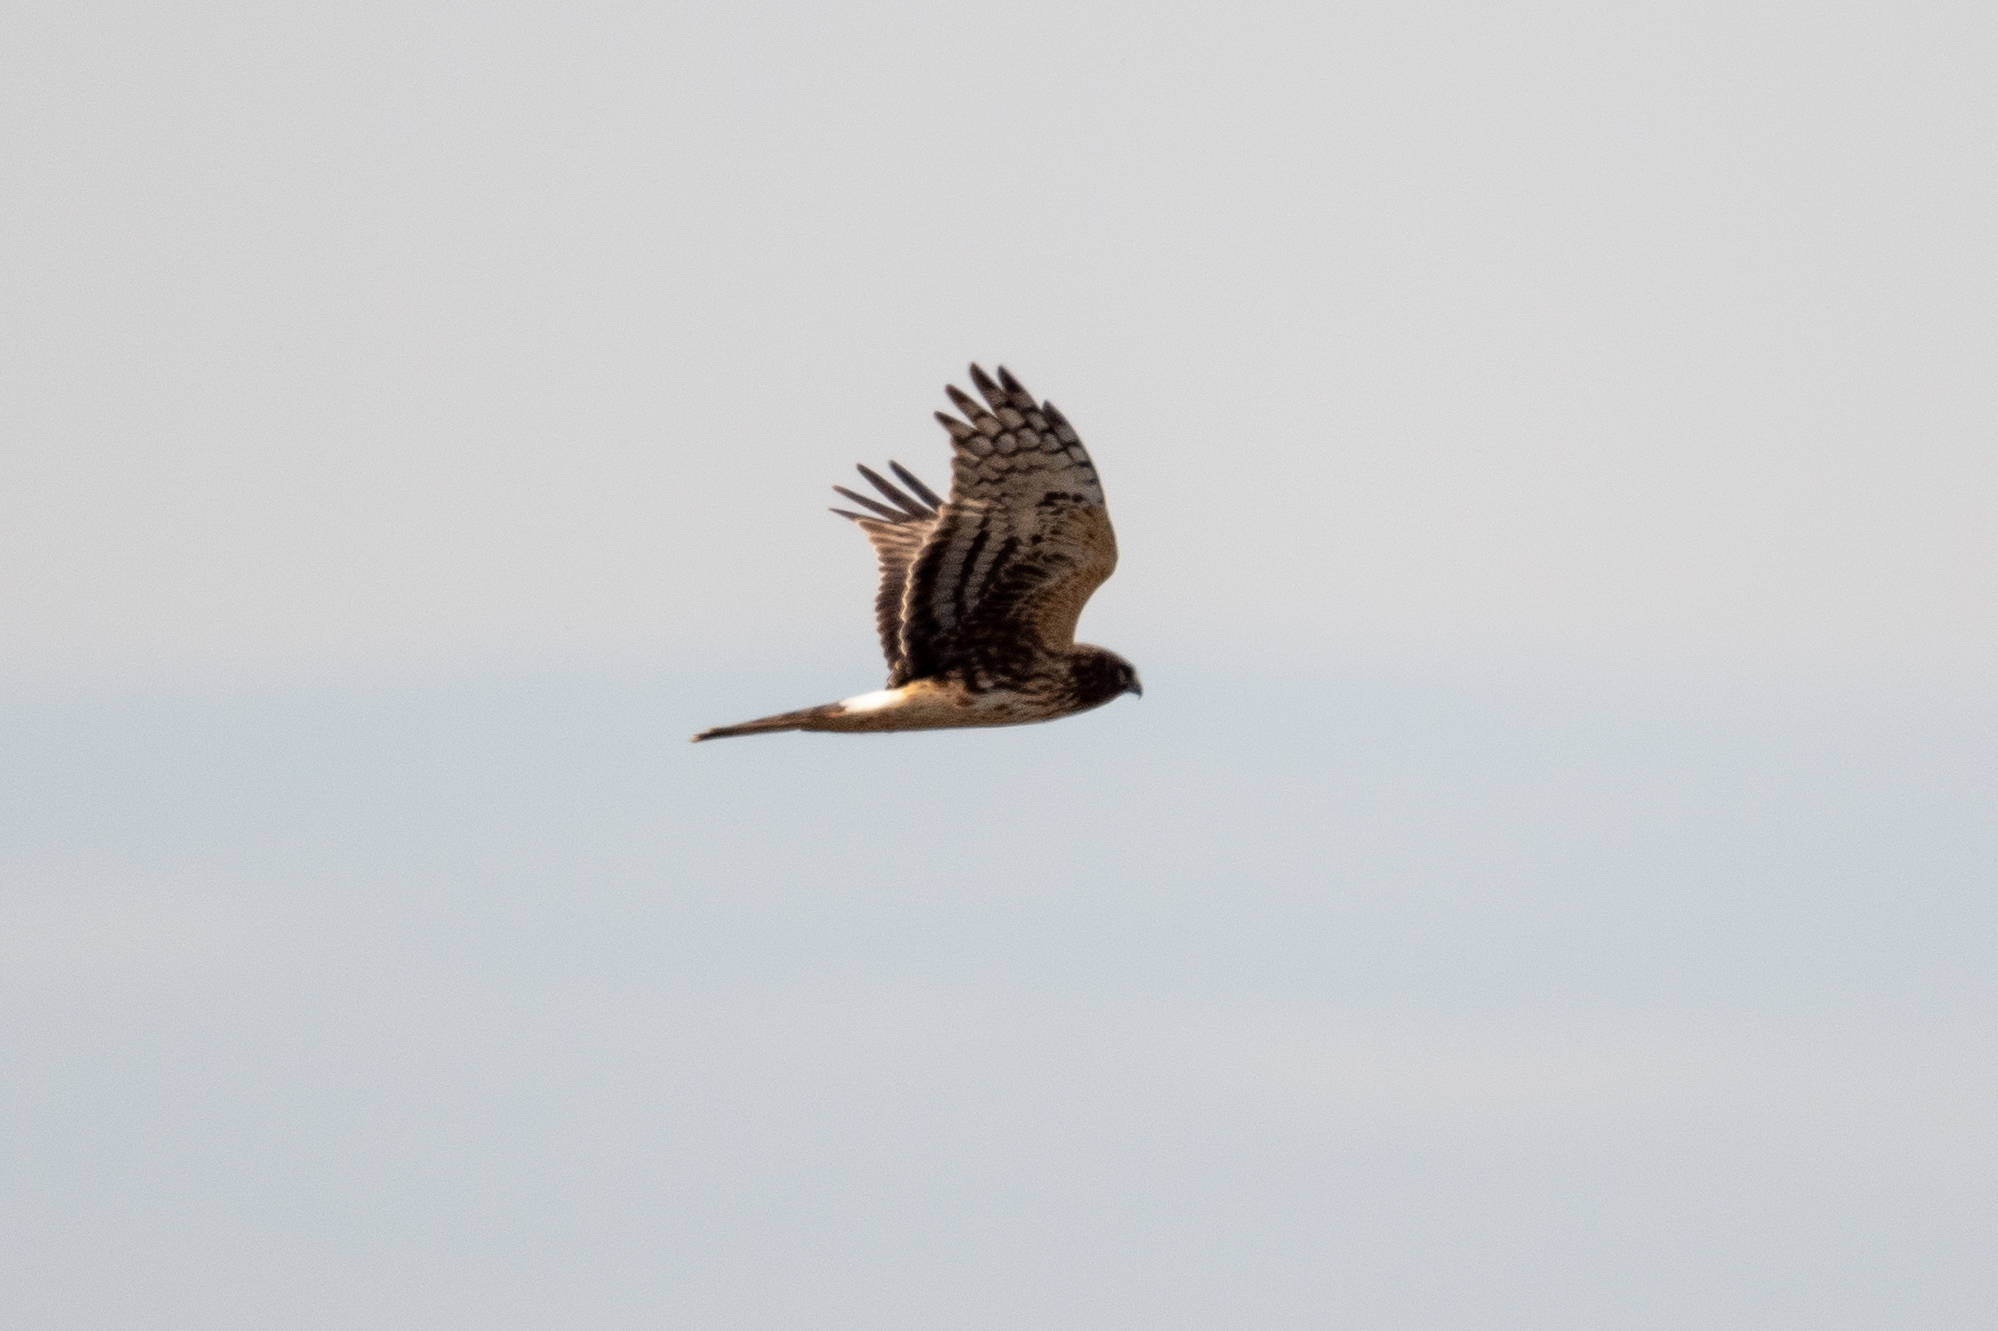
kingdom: Animalia
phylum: Chordata
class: Aves
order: Accipitriformes
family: Accipitridae
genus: Circus
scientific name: Circus cyaneus
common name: Hen harrier
